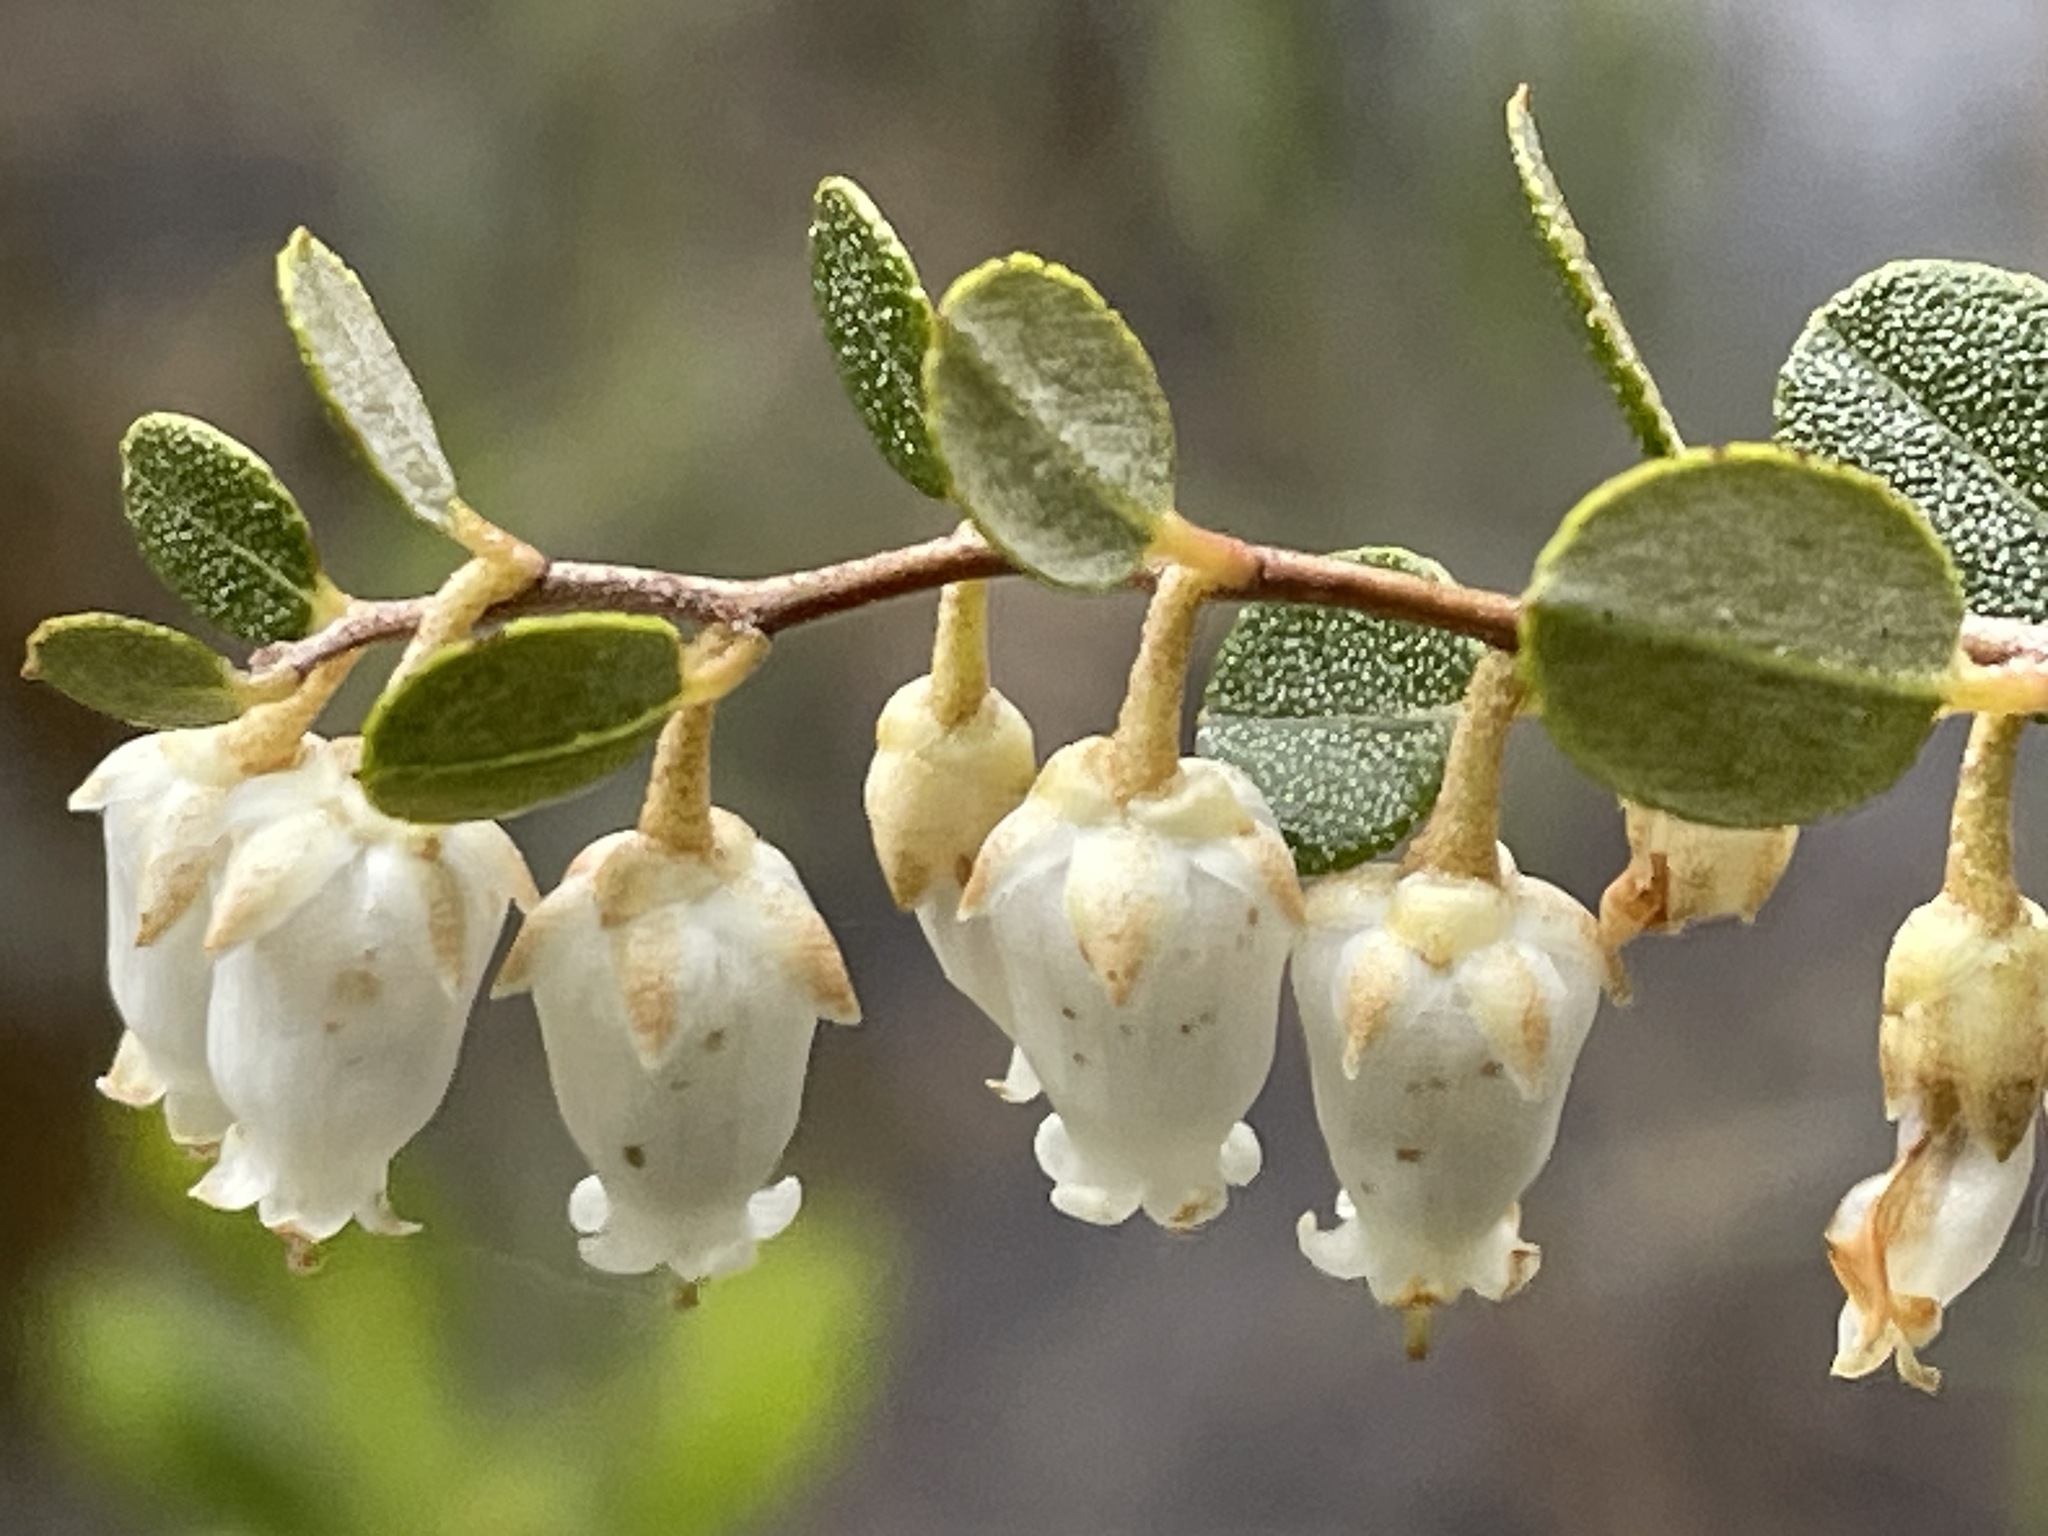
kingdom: Plantae
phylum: Tracheophyta
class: Magnoliopsida
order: Ericales
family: Ericaceae
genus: Chamaedaphne
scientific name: Chamaedaphne calyculata
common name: Leatherleaf
